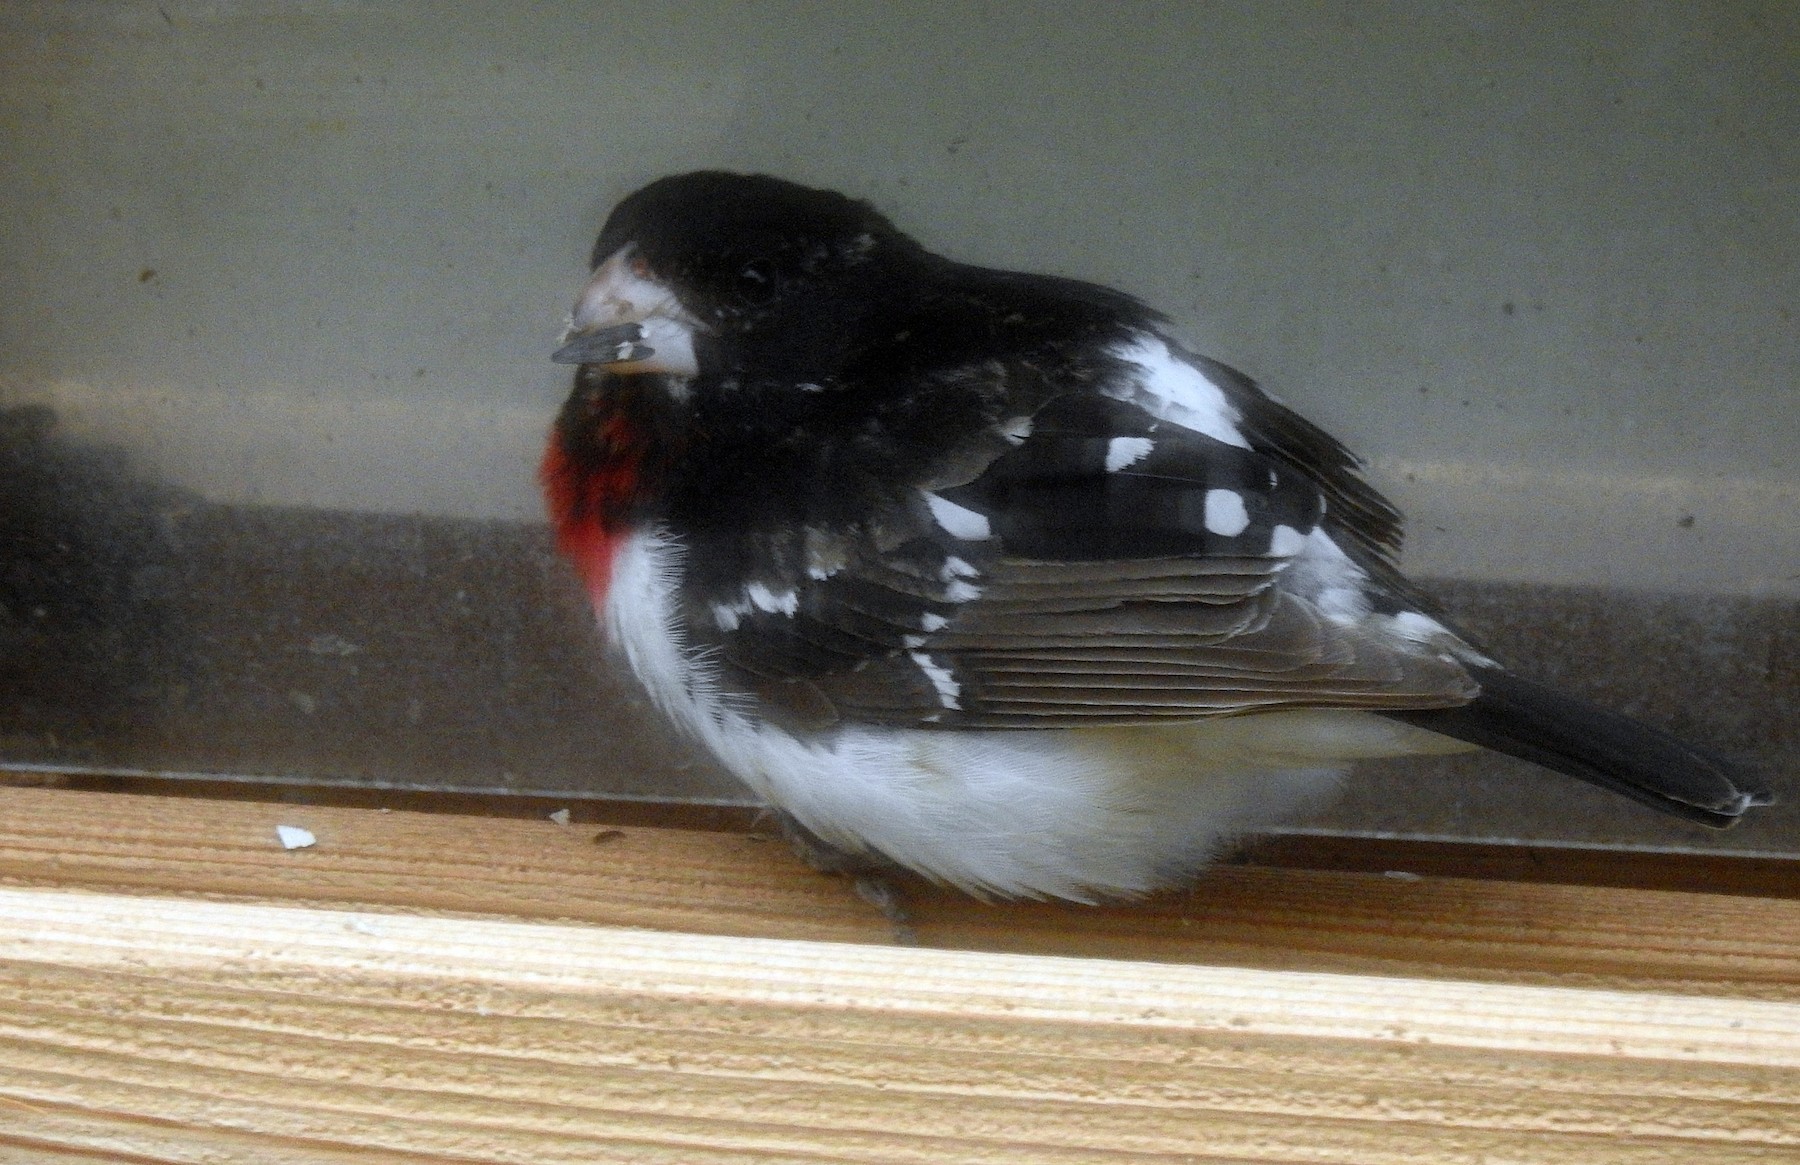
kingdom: Animalia
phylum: Chordata
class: Aves
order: Passeriformes
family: Cardinalidae
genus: Pheucticus
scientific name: Pheucticus ludovicianus
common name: Rose-breasted grosbeak
